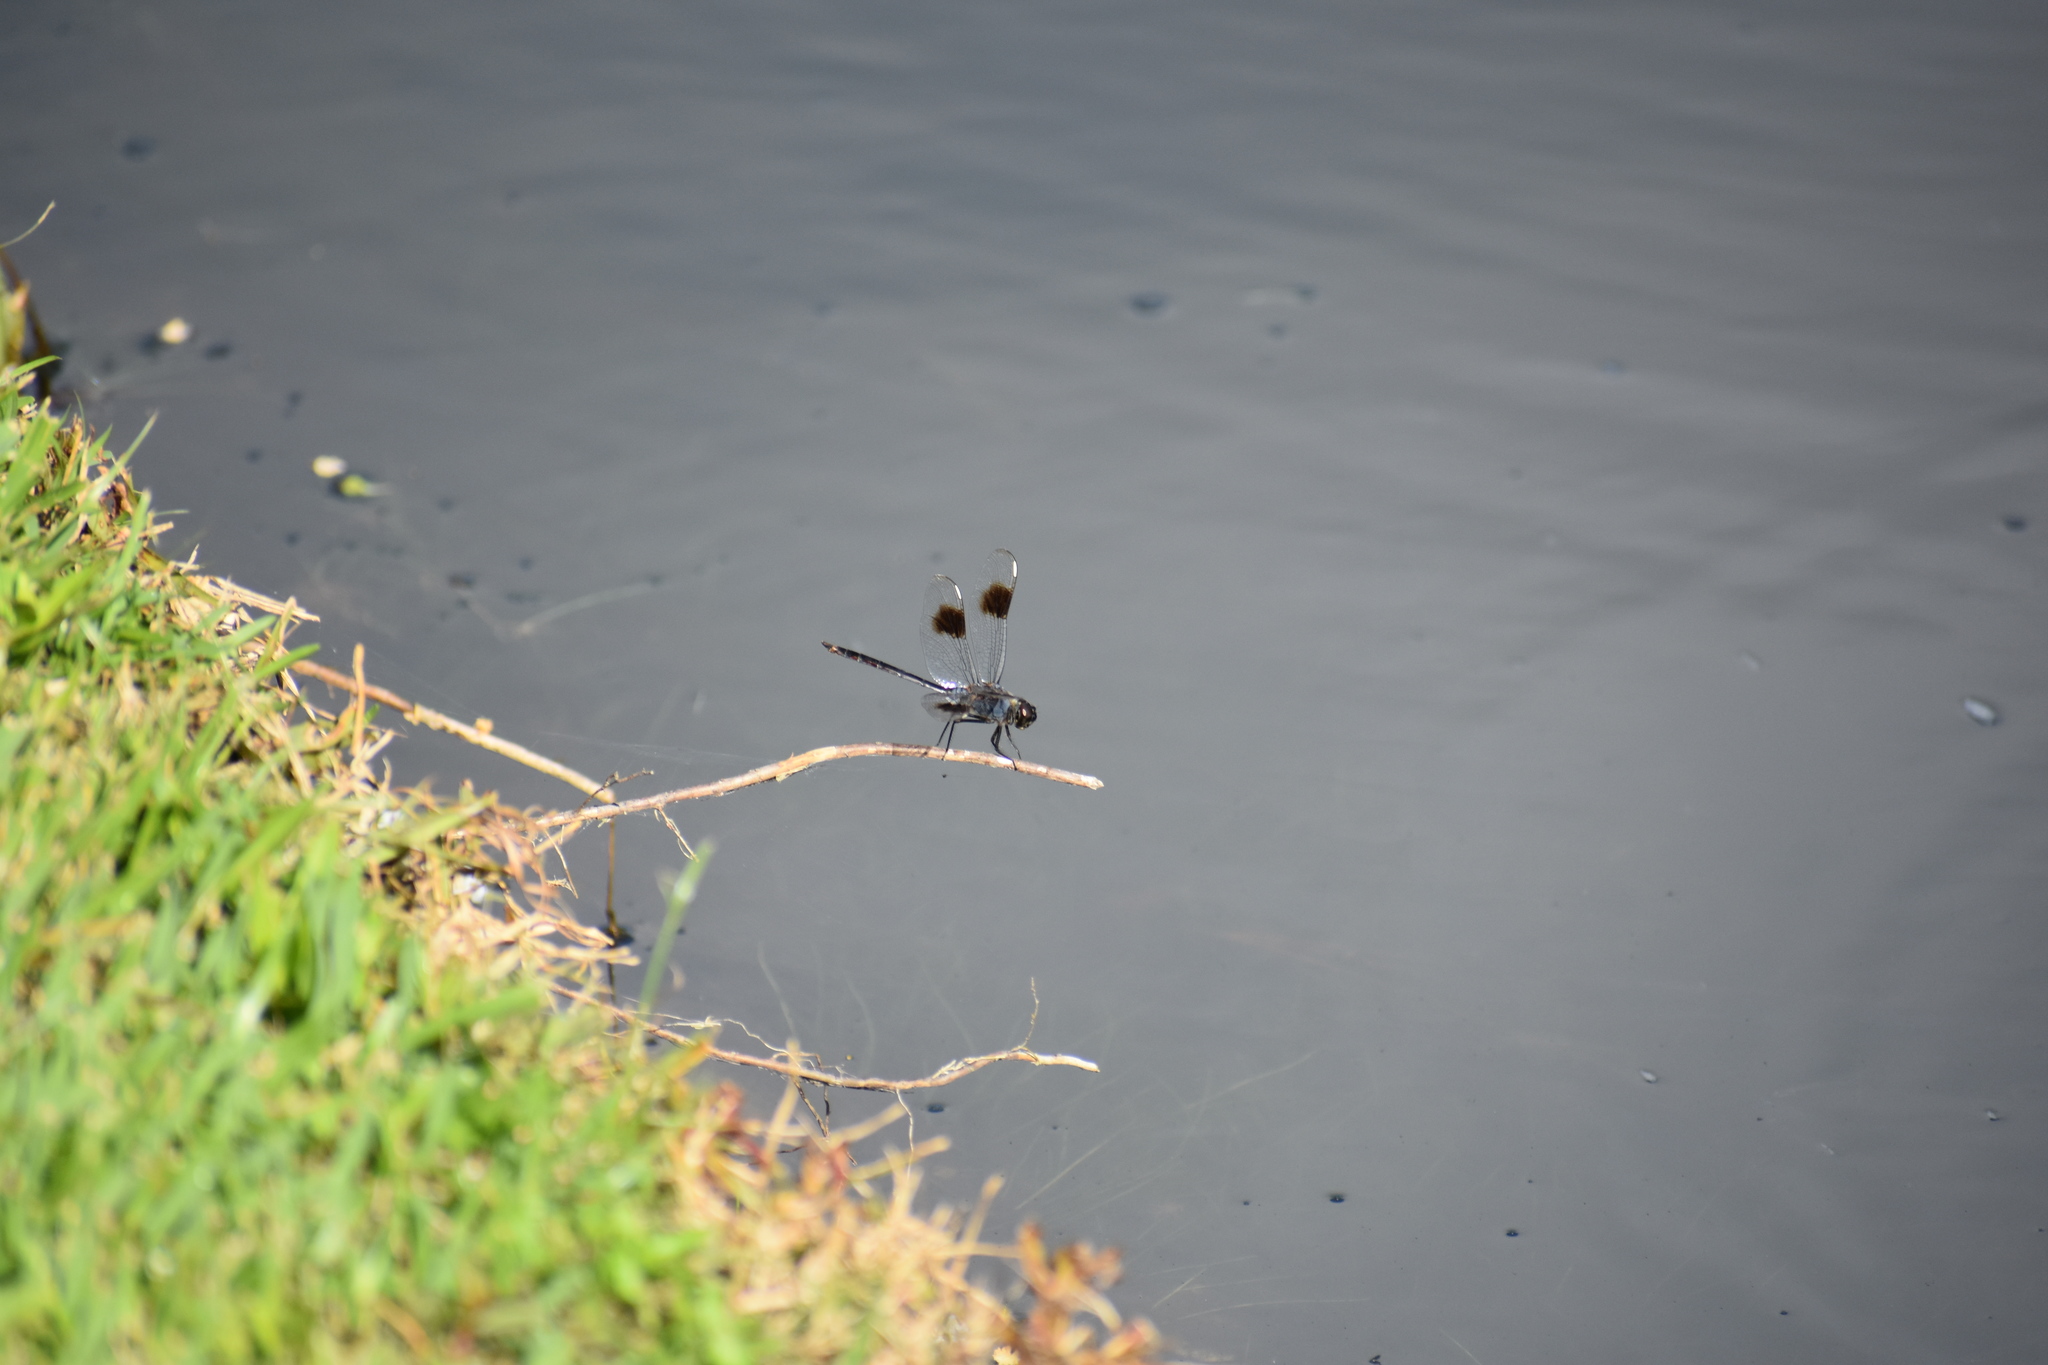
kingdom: Animalia
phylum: Arthropoda
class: Insecta
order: Odonata
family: Libellulidae
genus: Brachymesia
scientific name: Brachymesia gravida
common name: Four-spotted pennant
